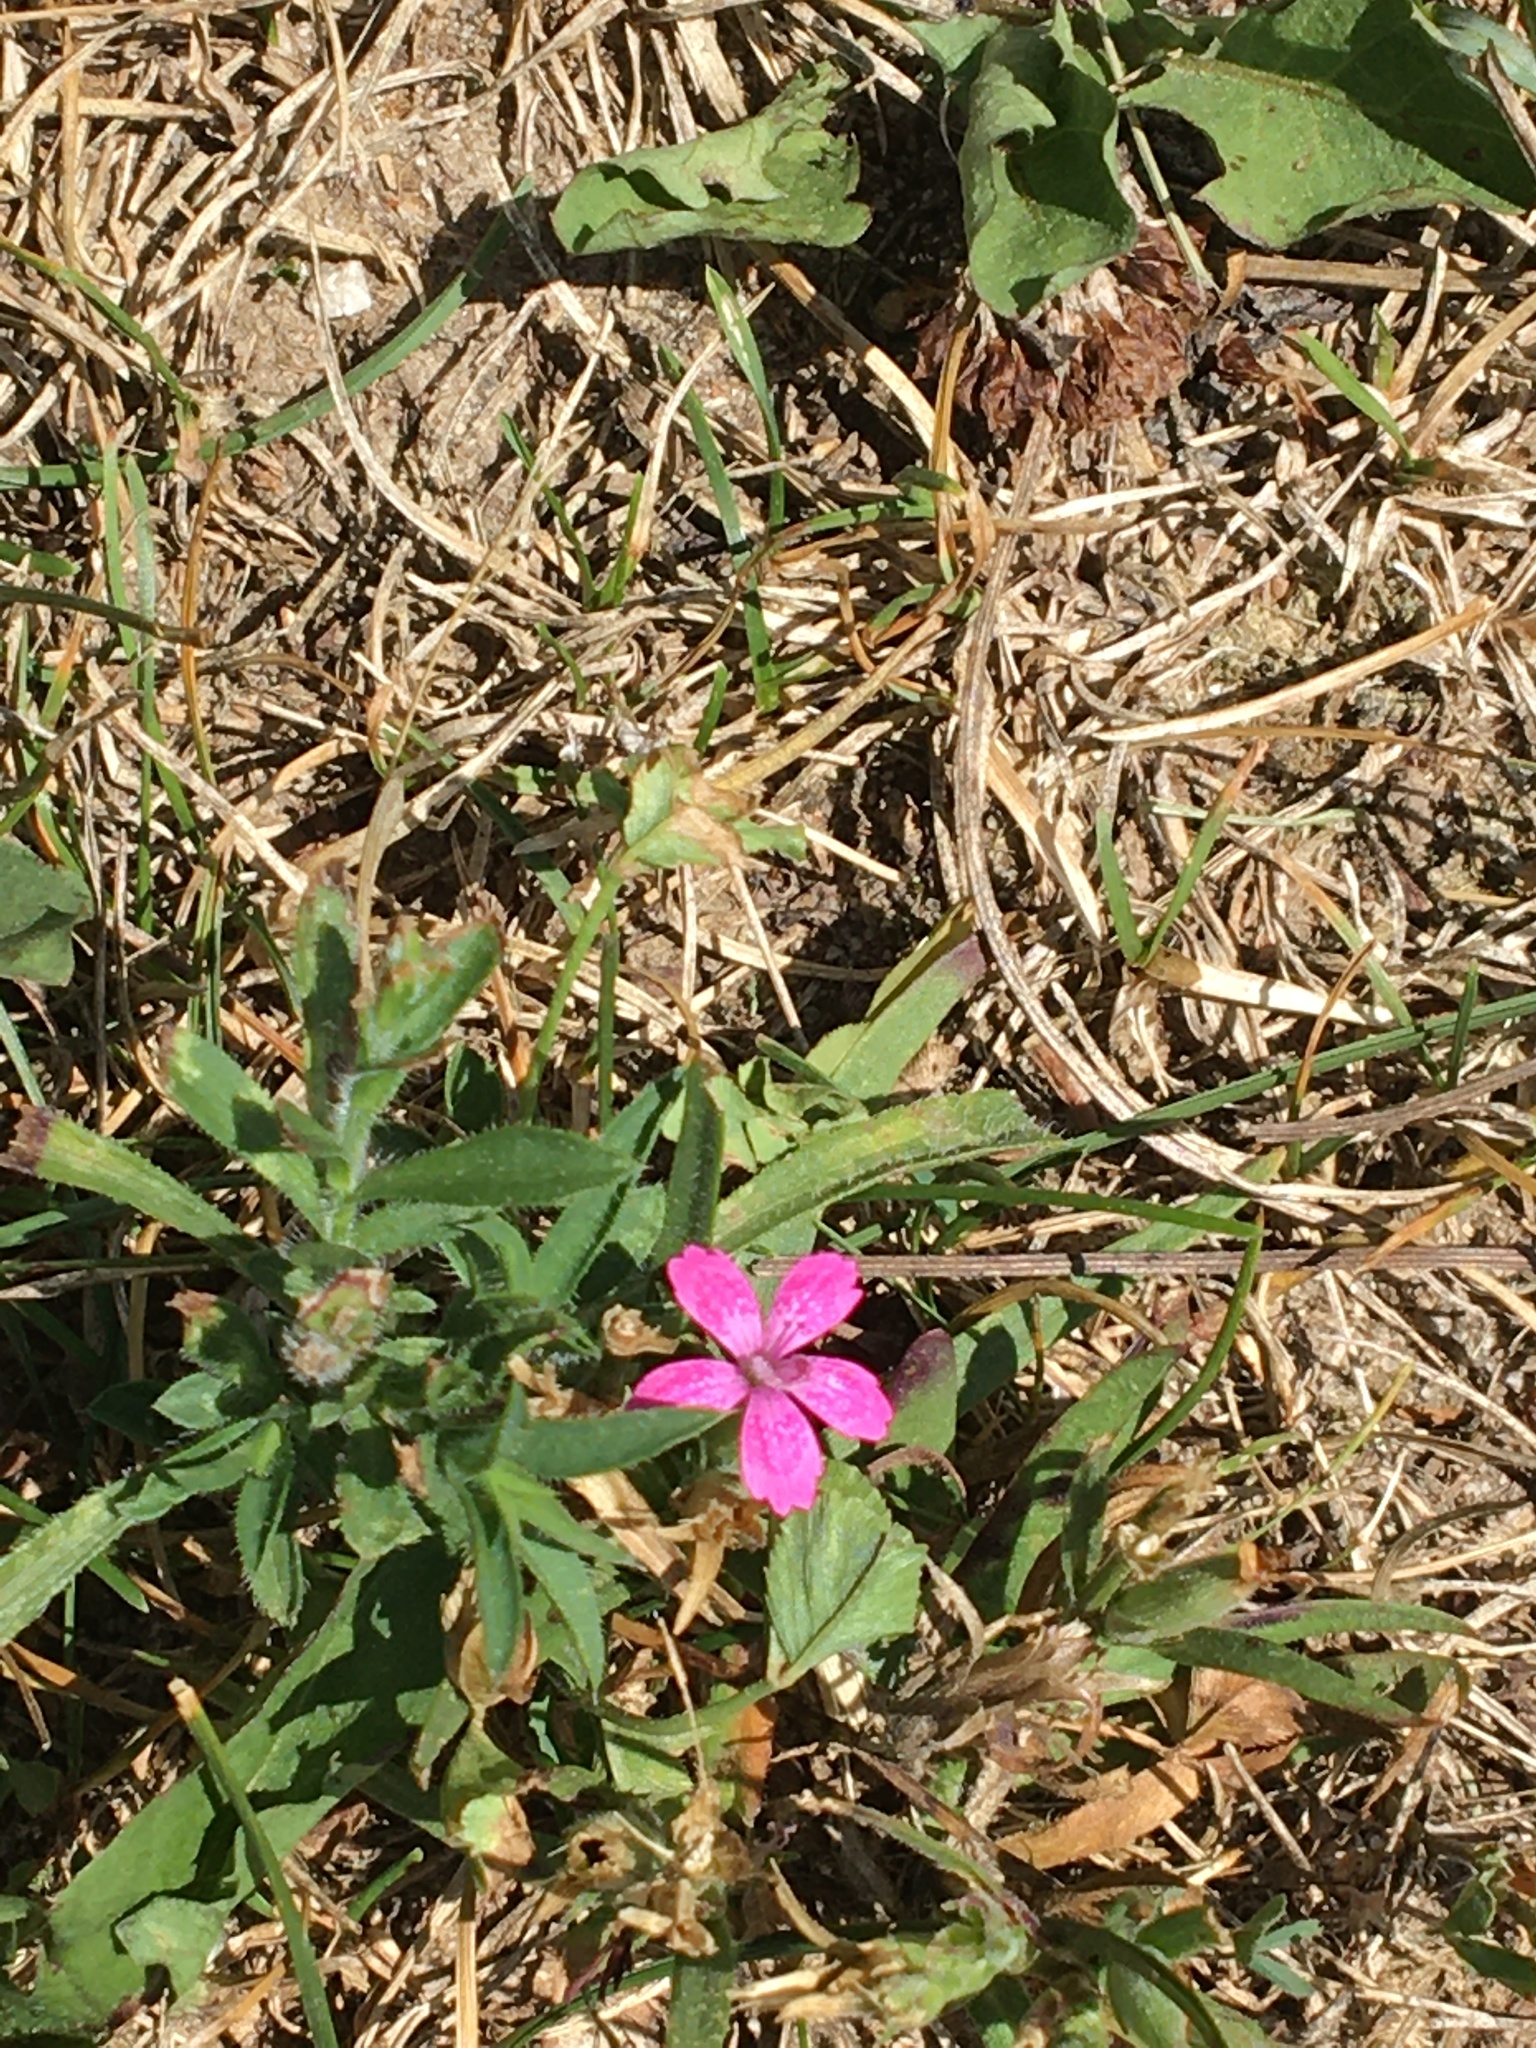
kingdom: Plantae
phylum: Tracheophyta
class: Magnoliopsida
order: Caryophyllales
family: Caryophyllaceae
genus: Dianthus
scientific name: Dianthus armeria
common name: Deptford pink
